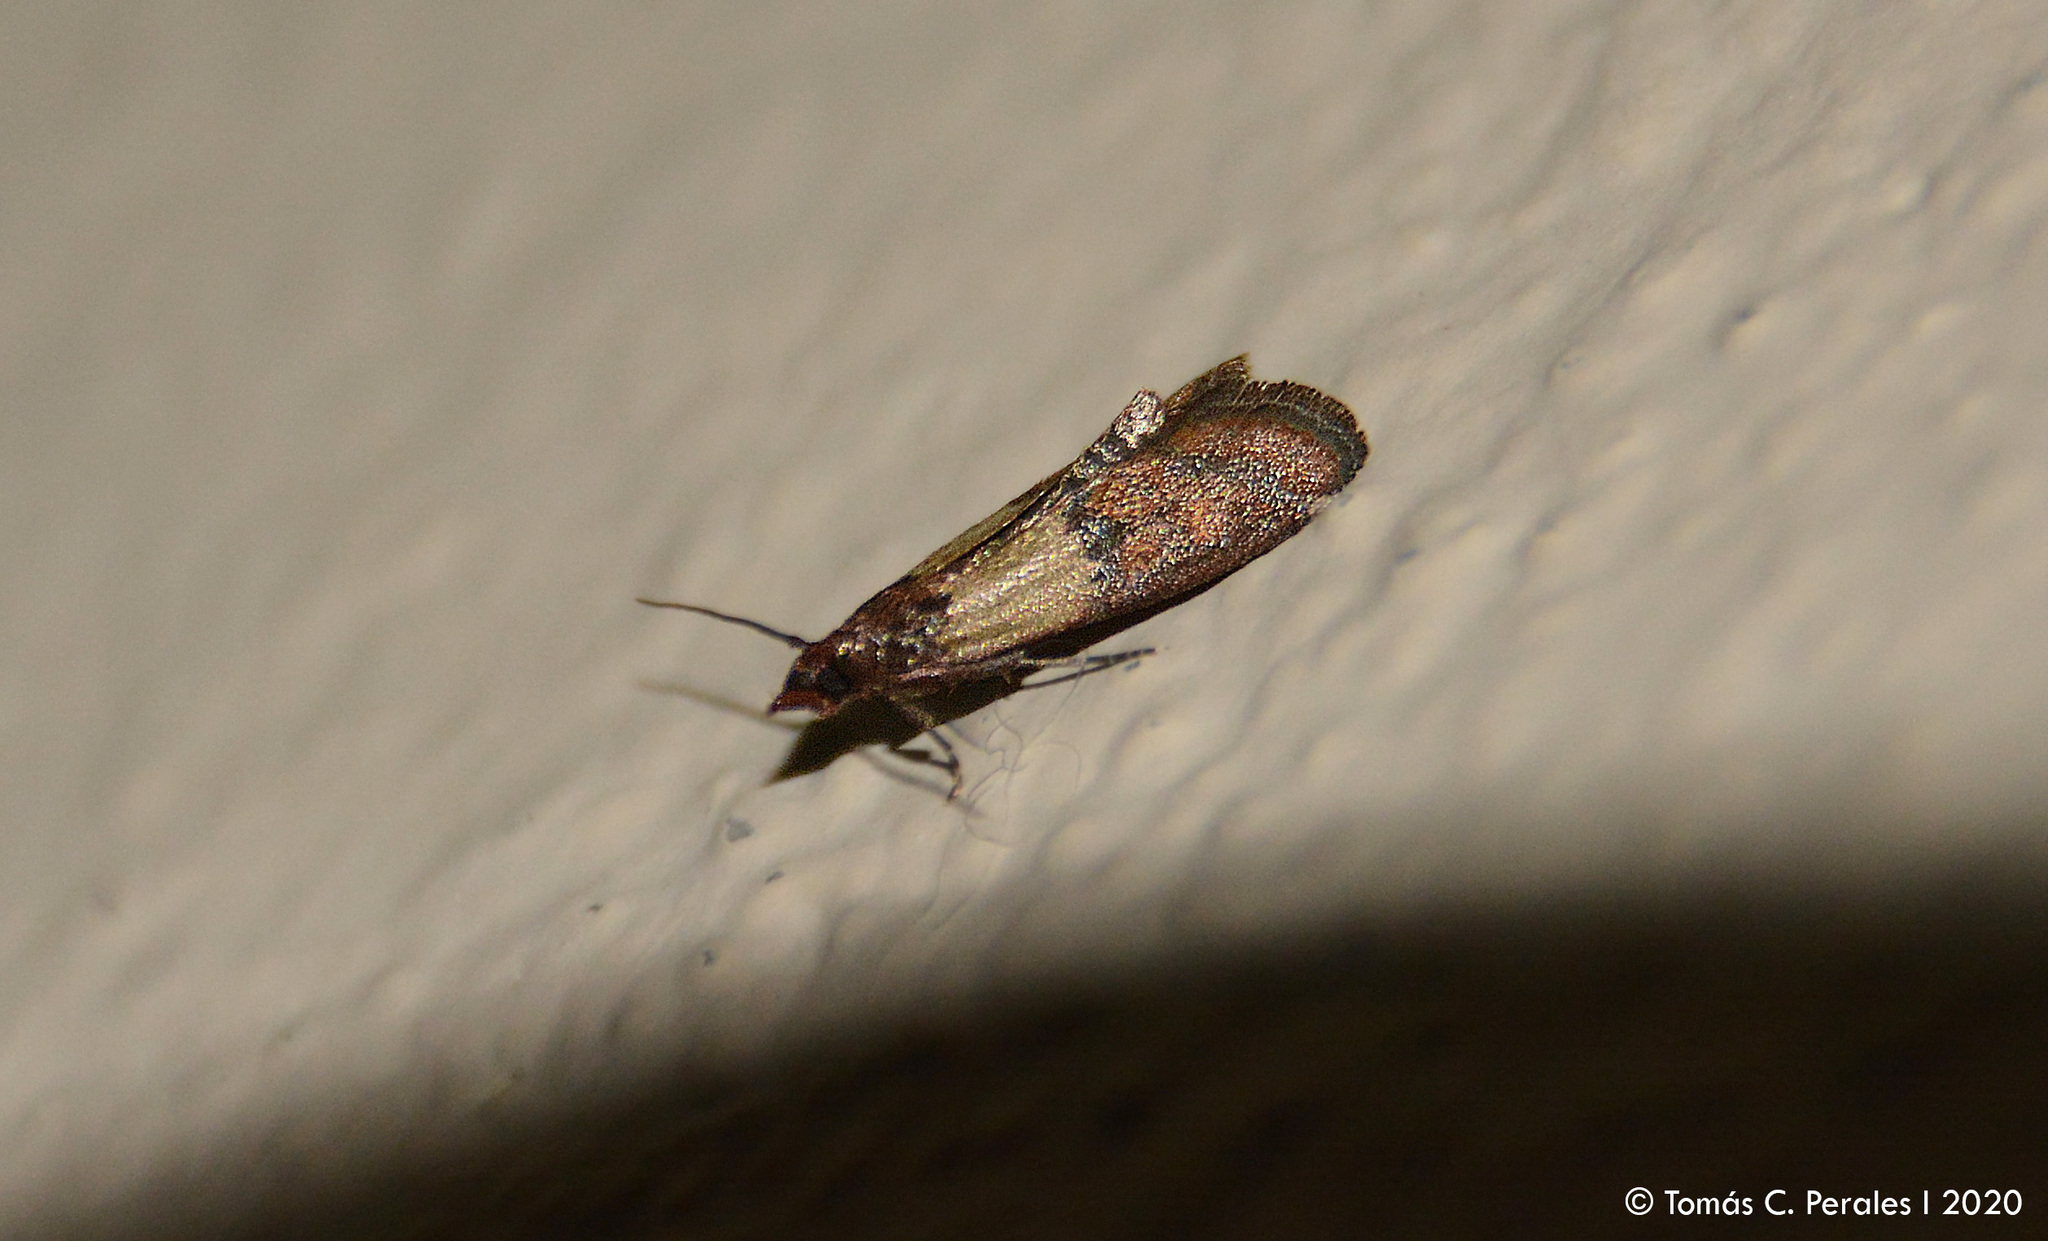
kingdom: Animalia
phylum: Arthropoda
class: Insecta
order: Lepidoptera
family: Pyralidae
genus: Plodia
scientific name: Plodia interpunctella
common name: Indian meal moth
